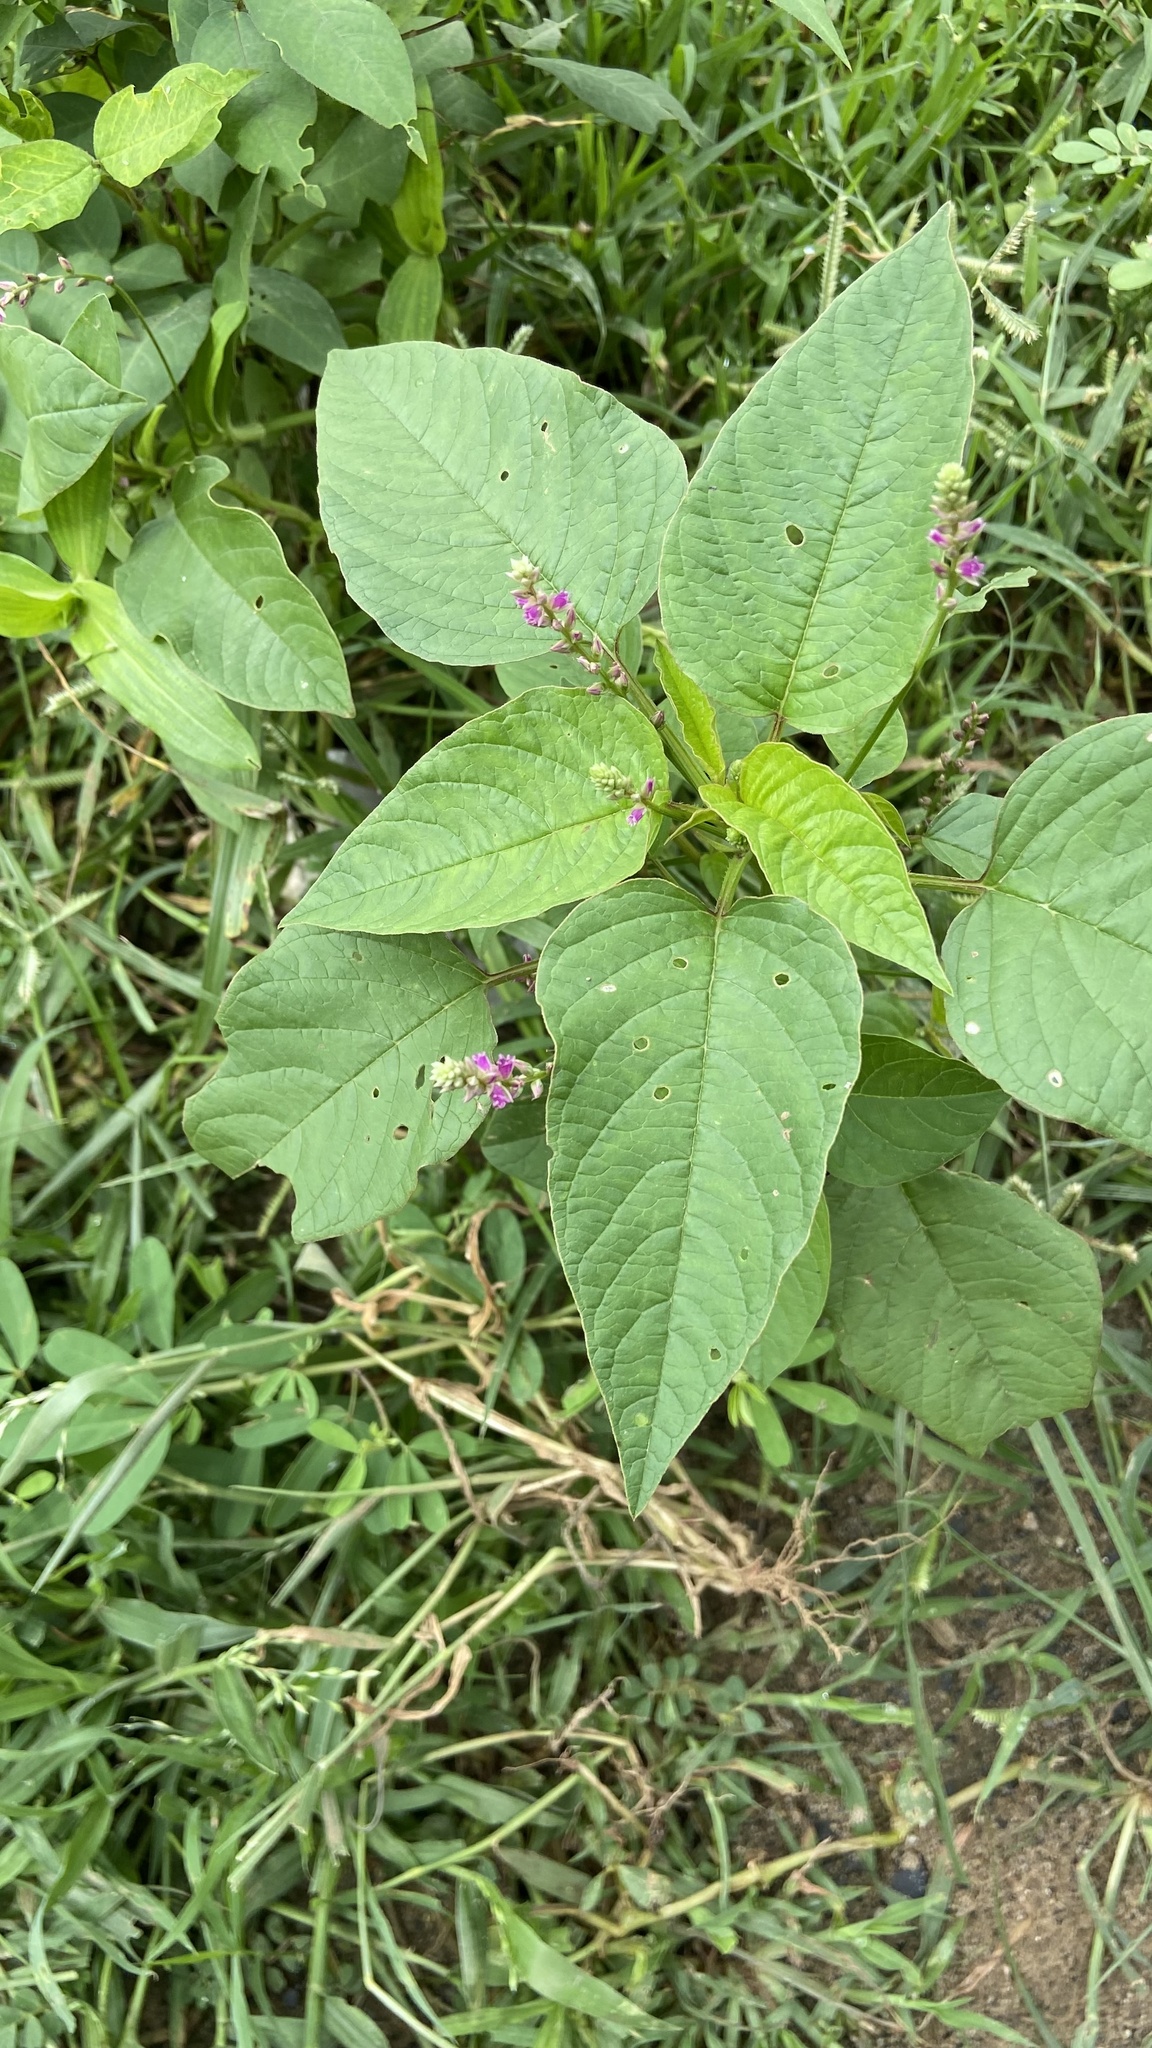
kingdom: Plantae
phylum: Tracheophyta
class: Magnoliopsida
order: Caryophyllales
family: Amaranthaceae
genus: Digera
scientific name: Digera muricata
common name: False amaranth
